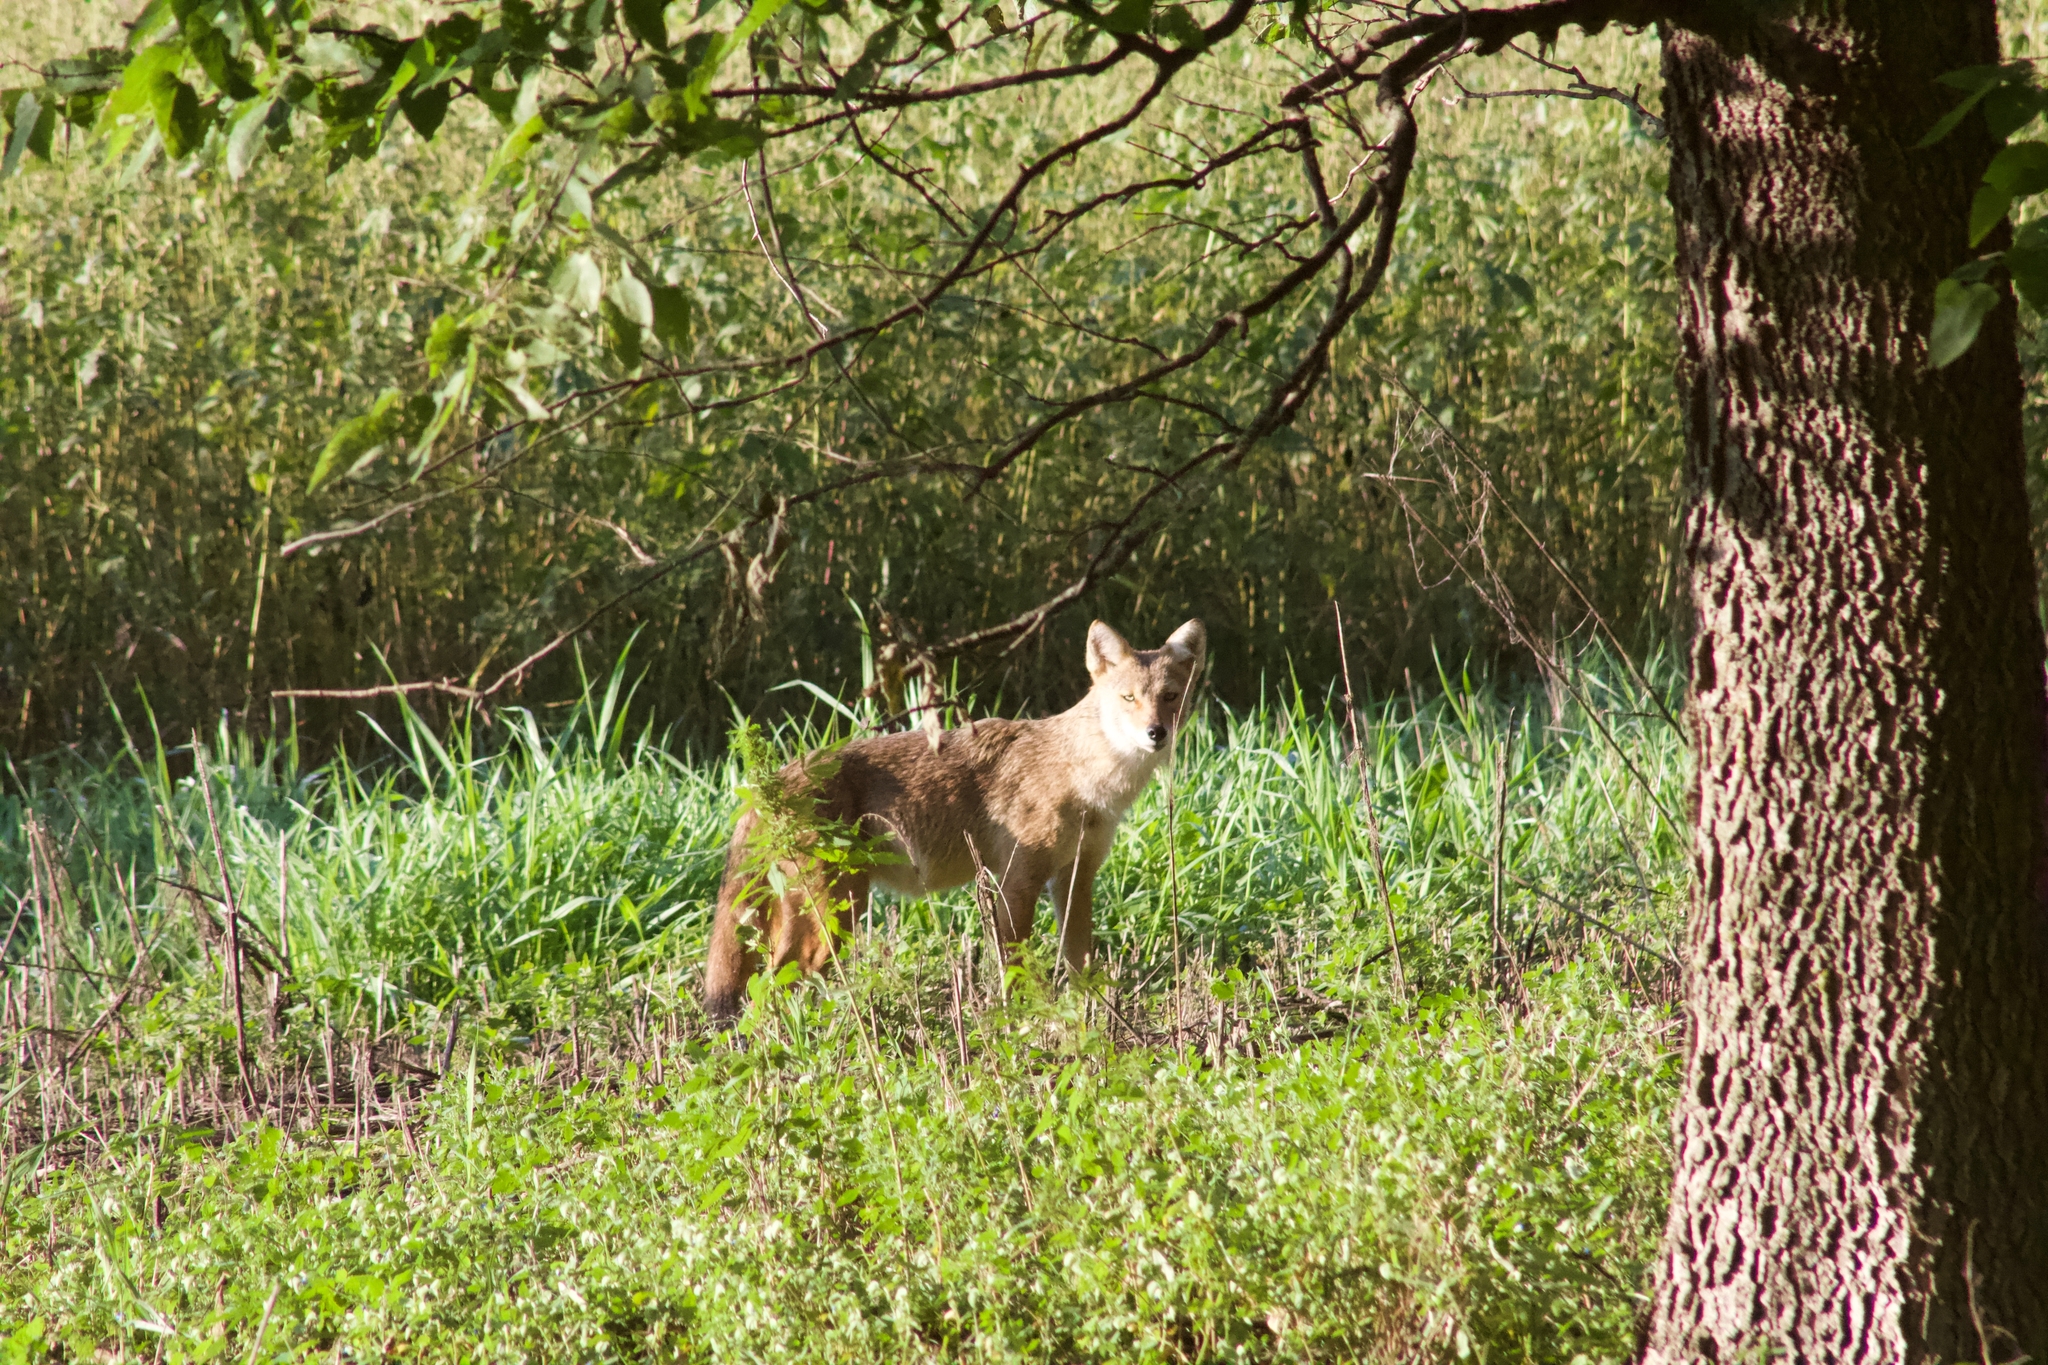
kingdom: Animalia
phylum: Chordata
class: Mammalia
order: Carnivora
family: Canidae
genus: Canis
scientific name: Canis latrans
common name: Coyote
